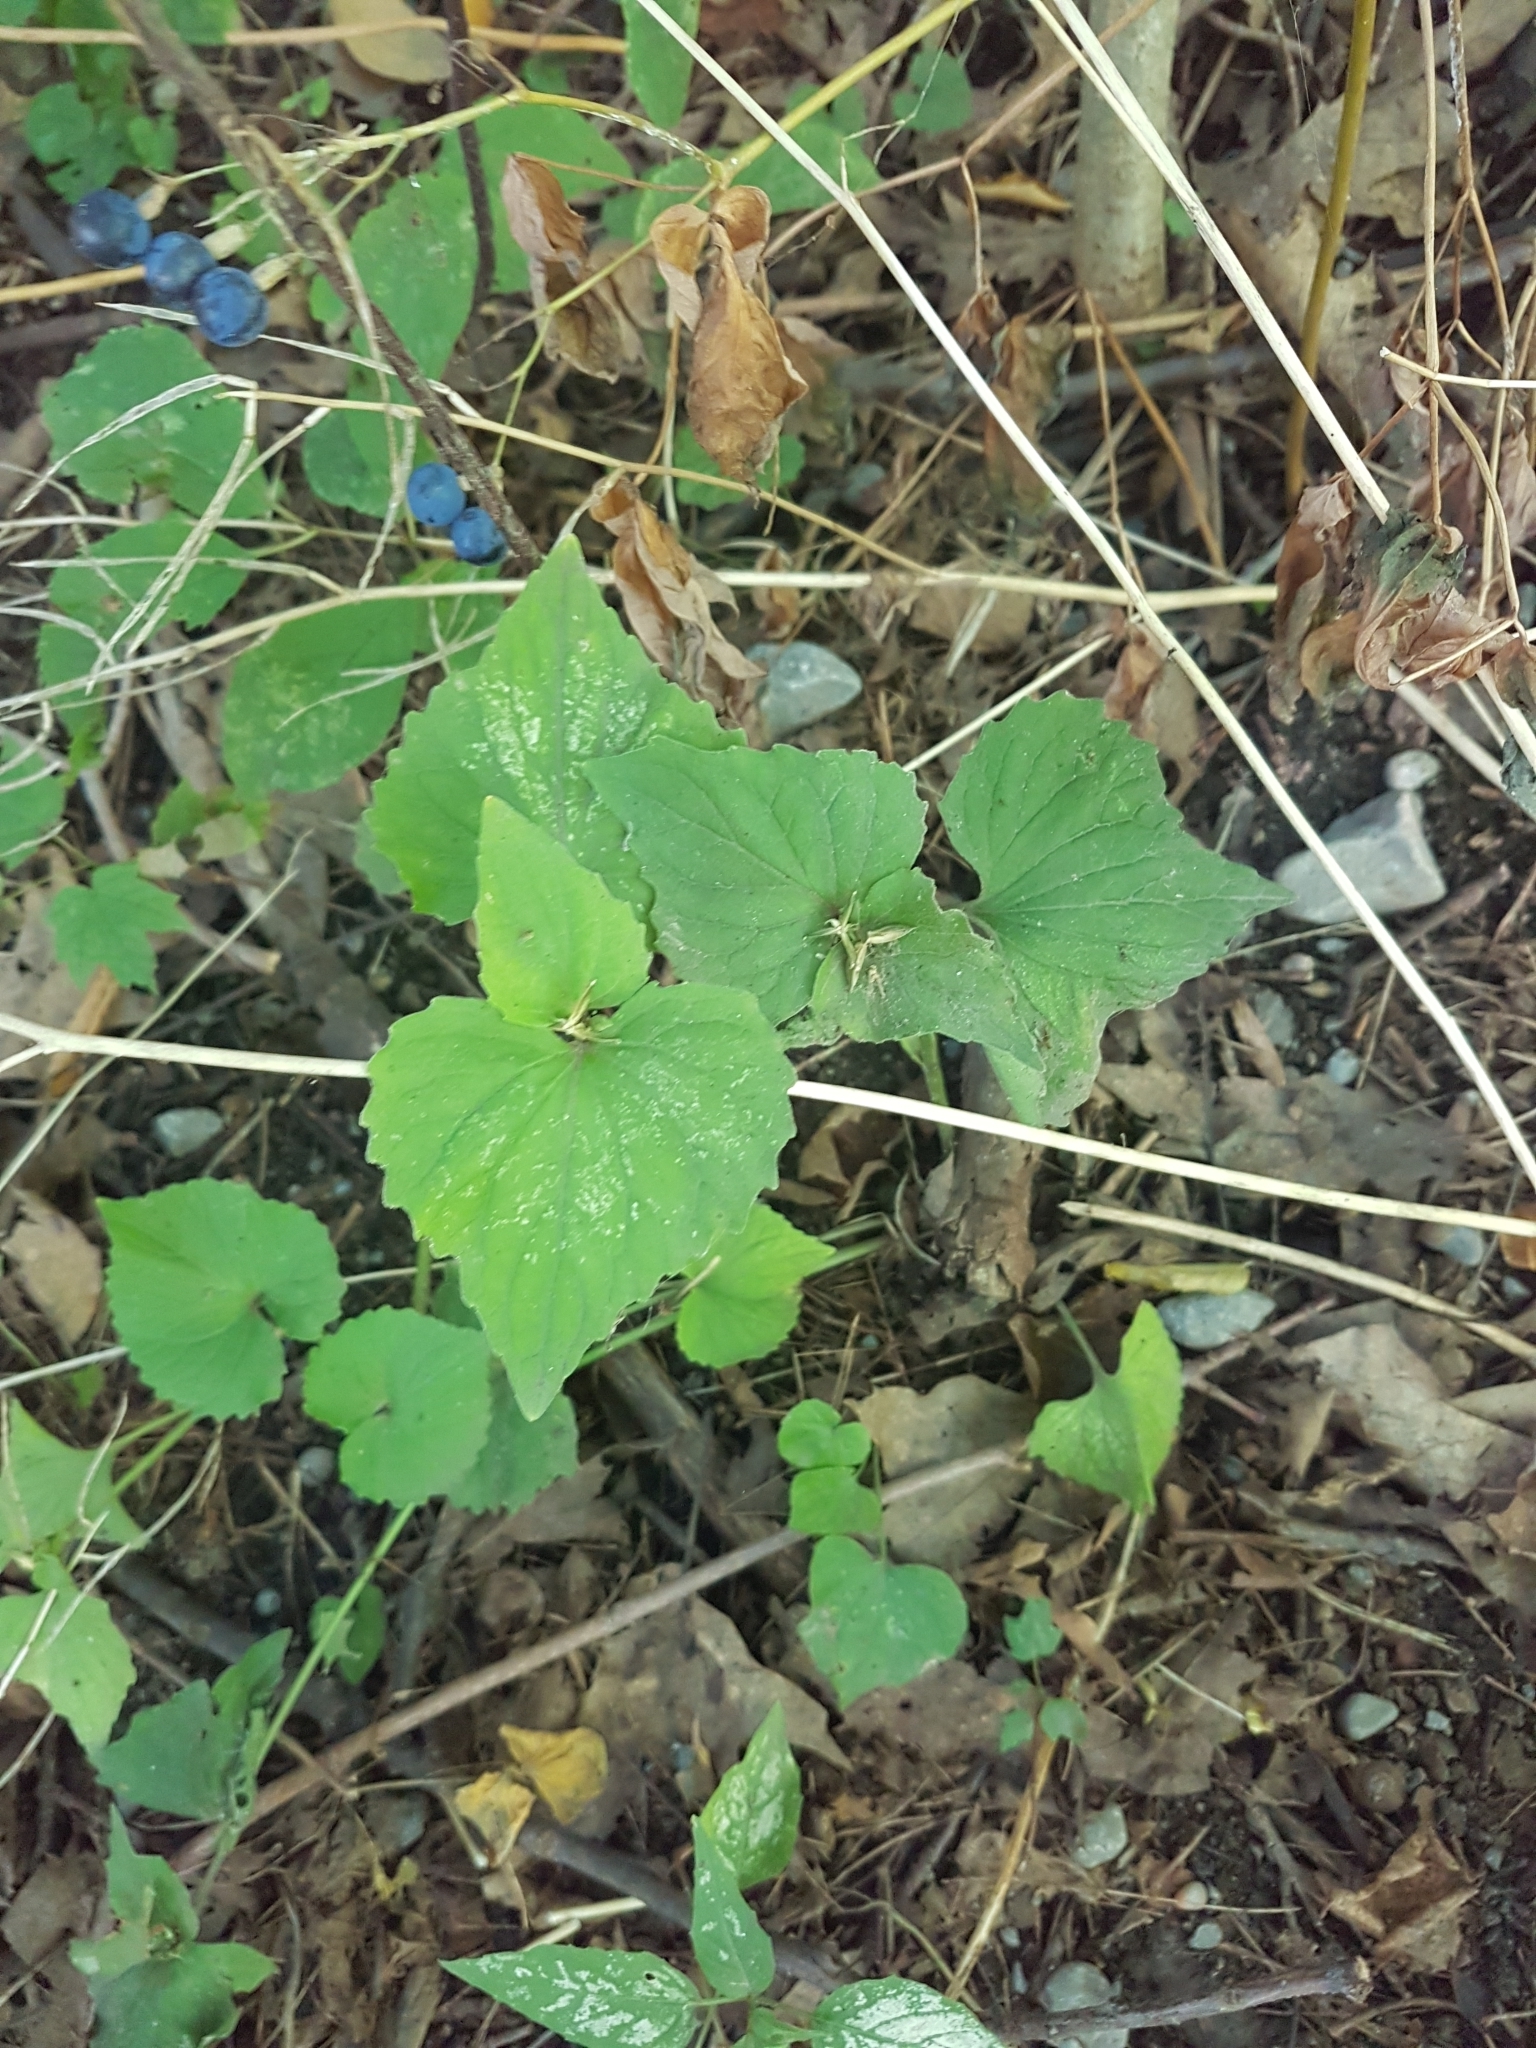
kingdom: Plantae
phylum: Tracheophyta
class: Magnoliopsida
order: Malpighiales
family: Violaceae
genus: Viola
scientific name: Viola eriocarpa
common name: Smooth yellow violet
